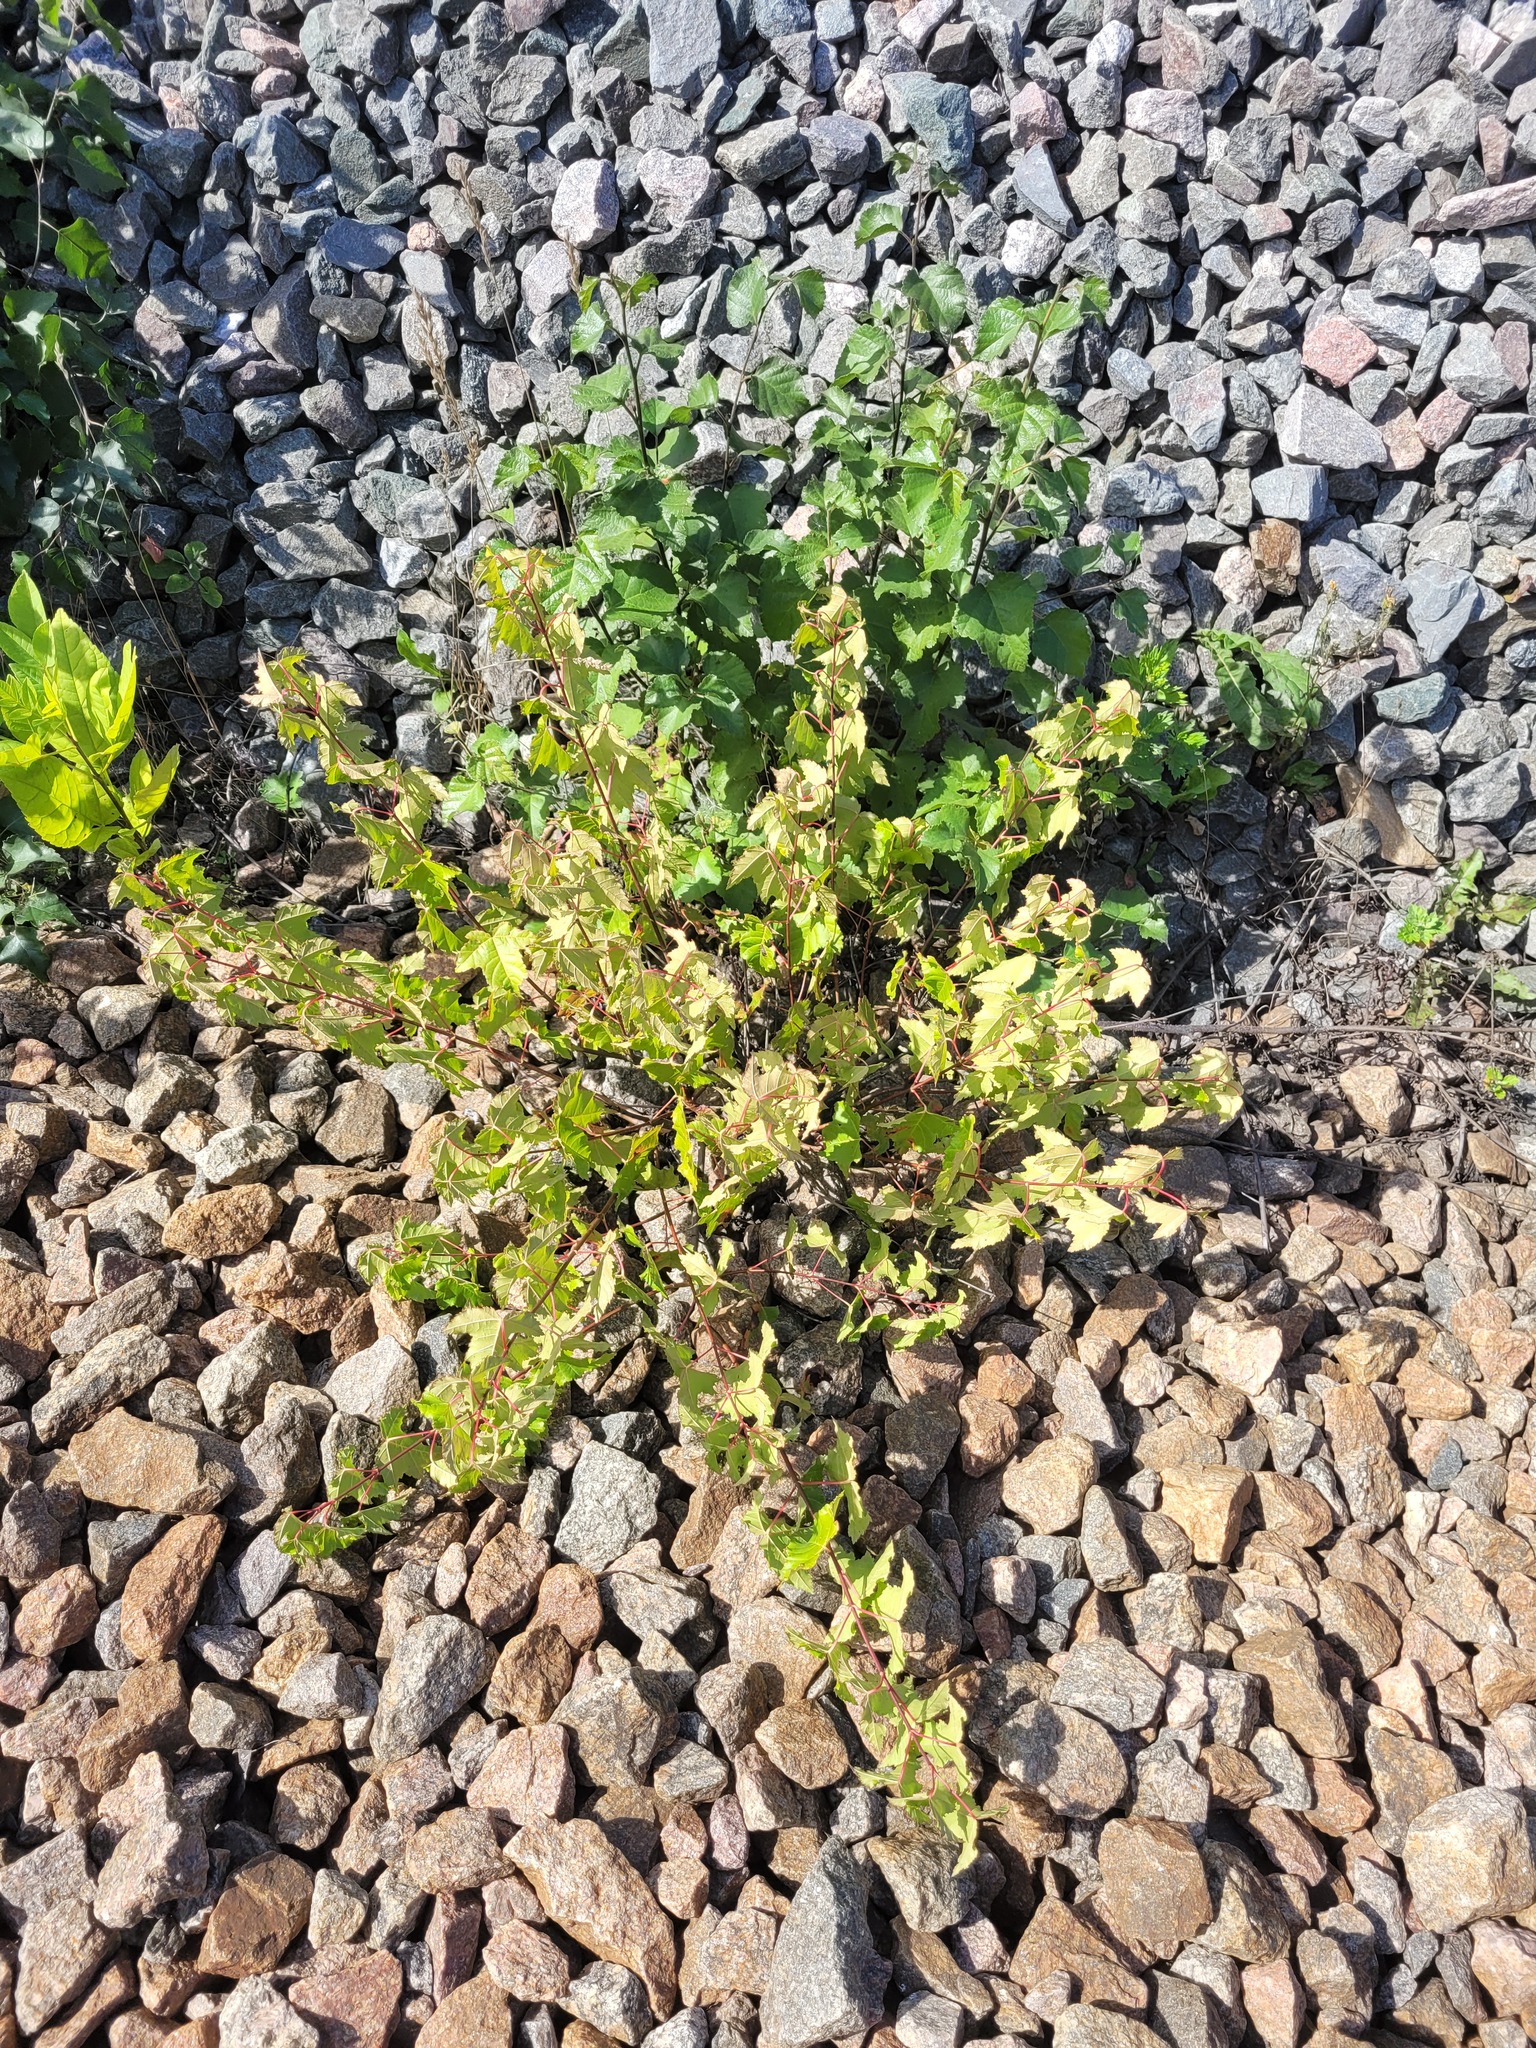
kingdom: Plantae
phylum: Tracheophyta
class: Magnoliopsida
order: Sapindales
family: Sapindaceae
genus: Acer
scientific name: Acer tataricum
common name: Tartar maple
